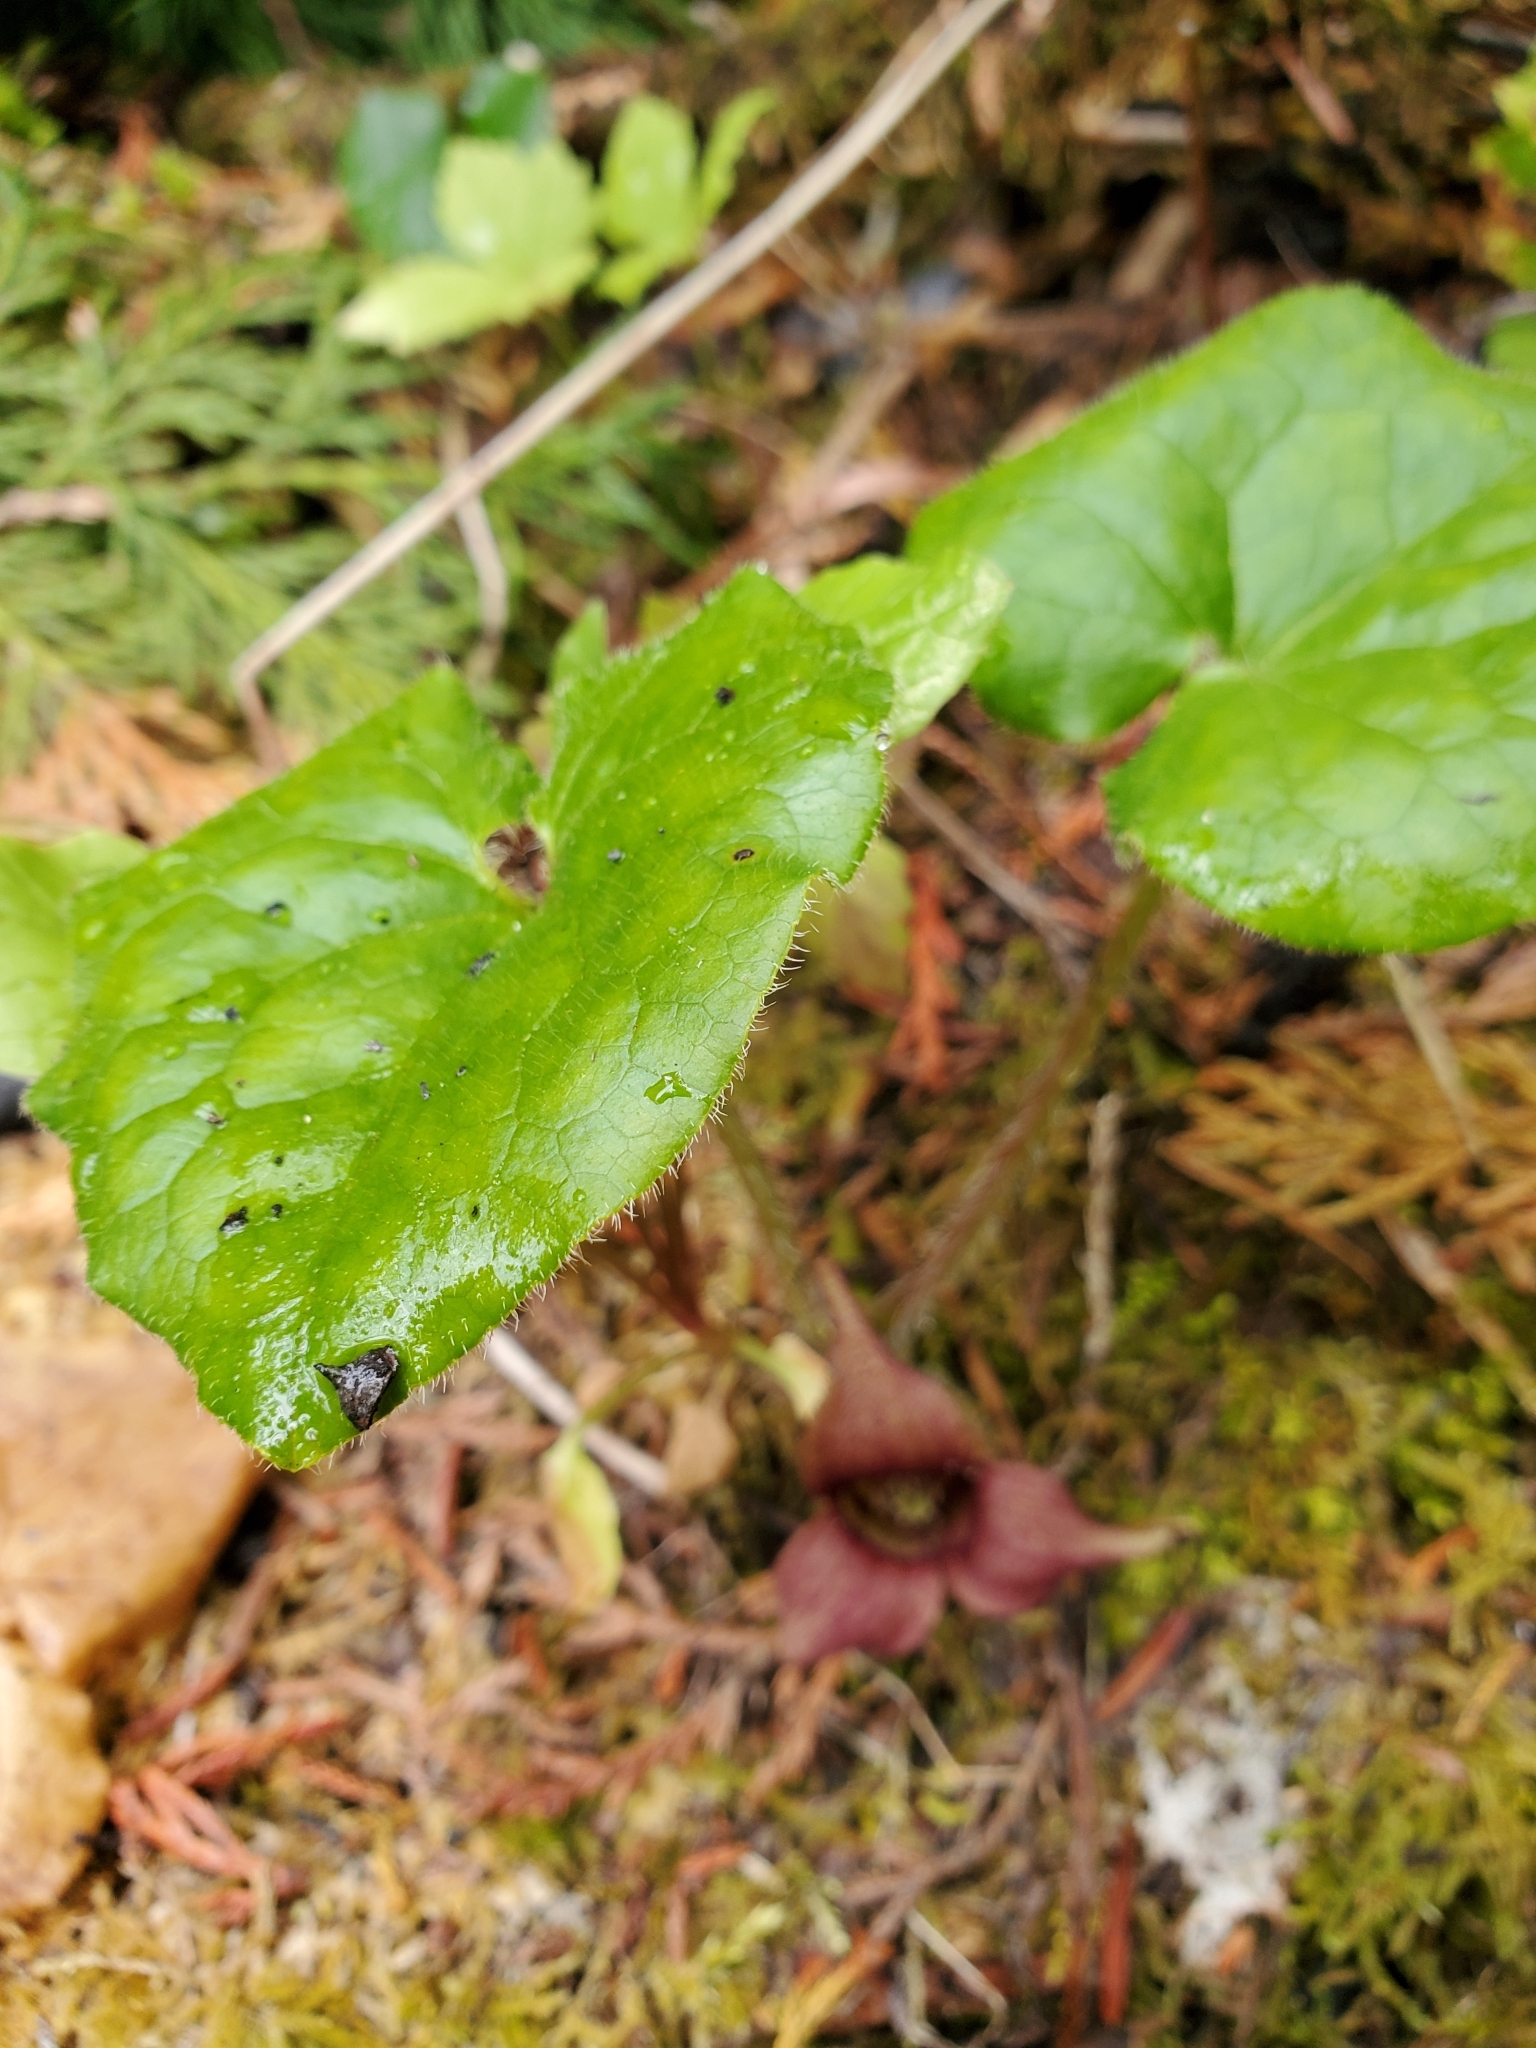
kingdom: Plantae
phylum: Tracheophyta
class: Magnoliopsida
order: Piperales
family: Aristolochiaceae
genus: Asarum
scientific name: Asarum caudatum
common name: Wild ginger
